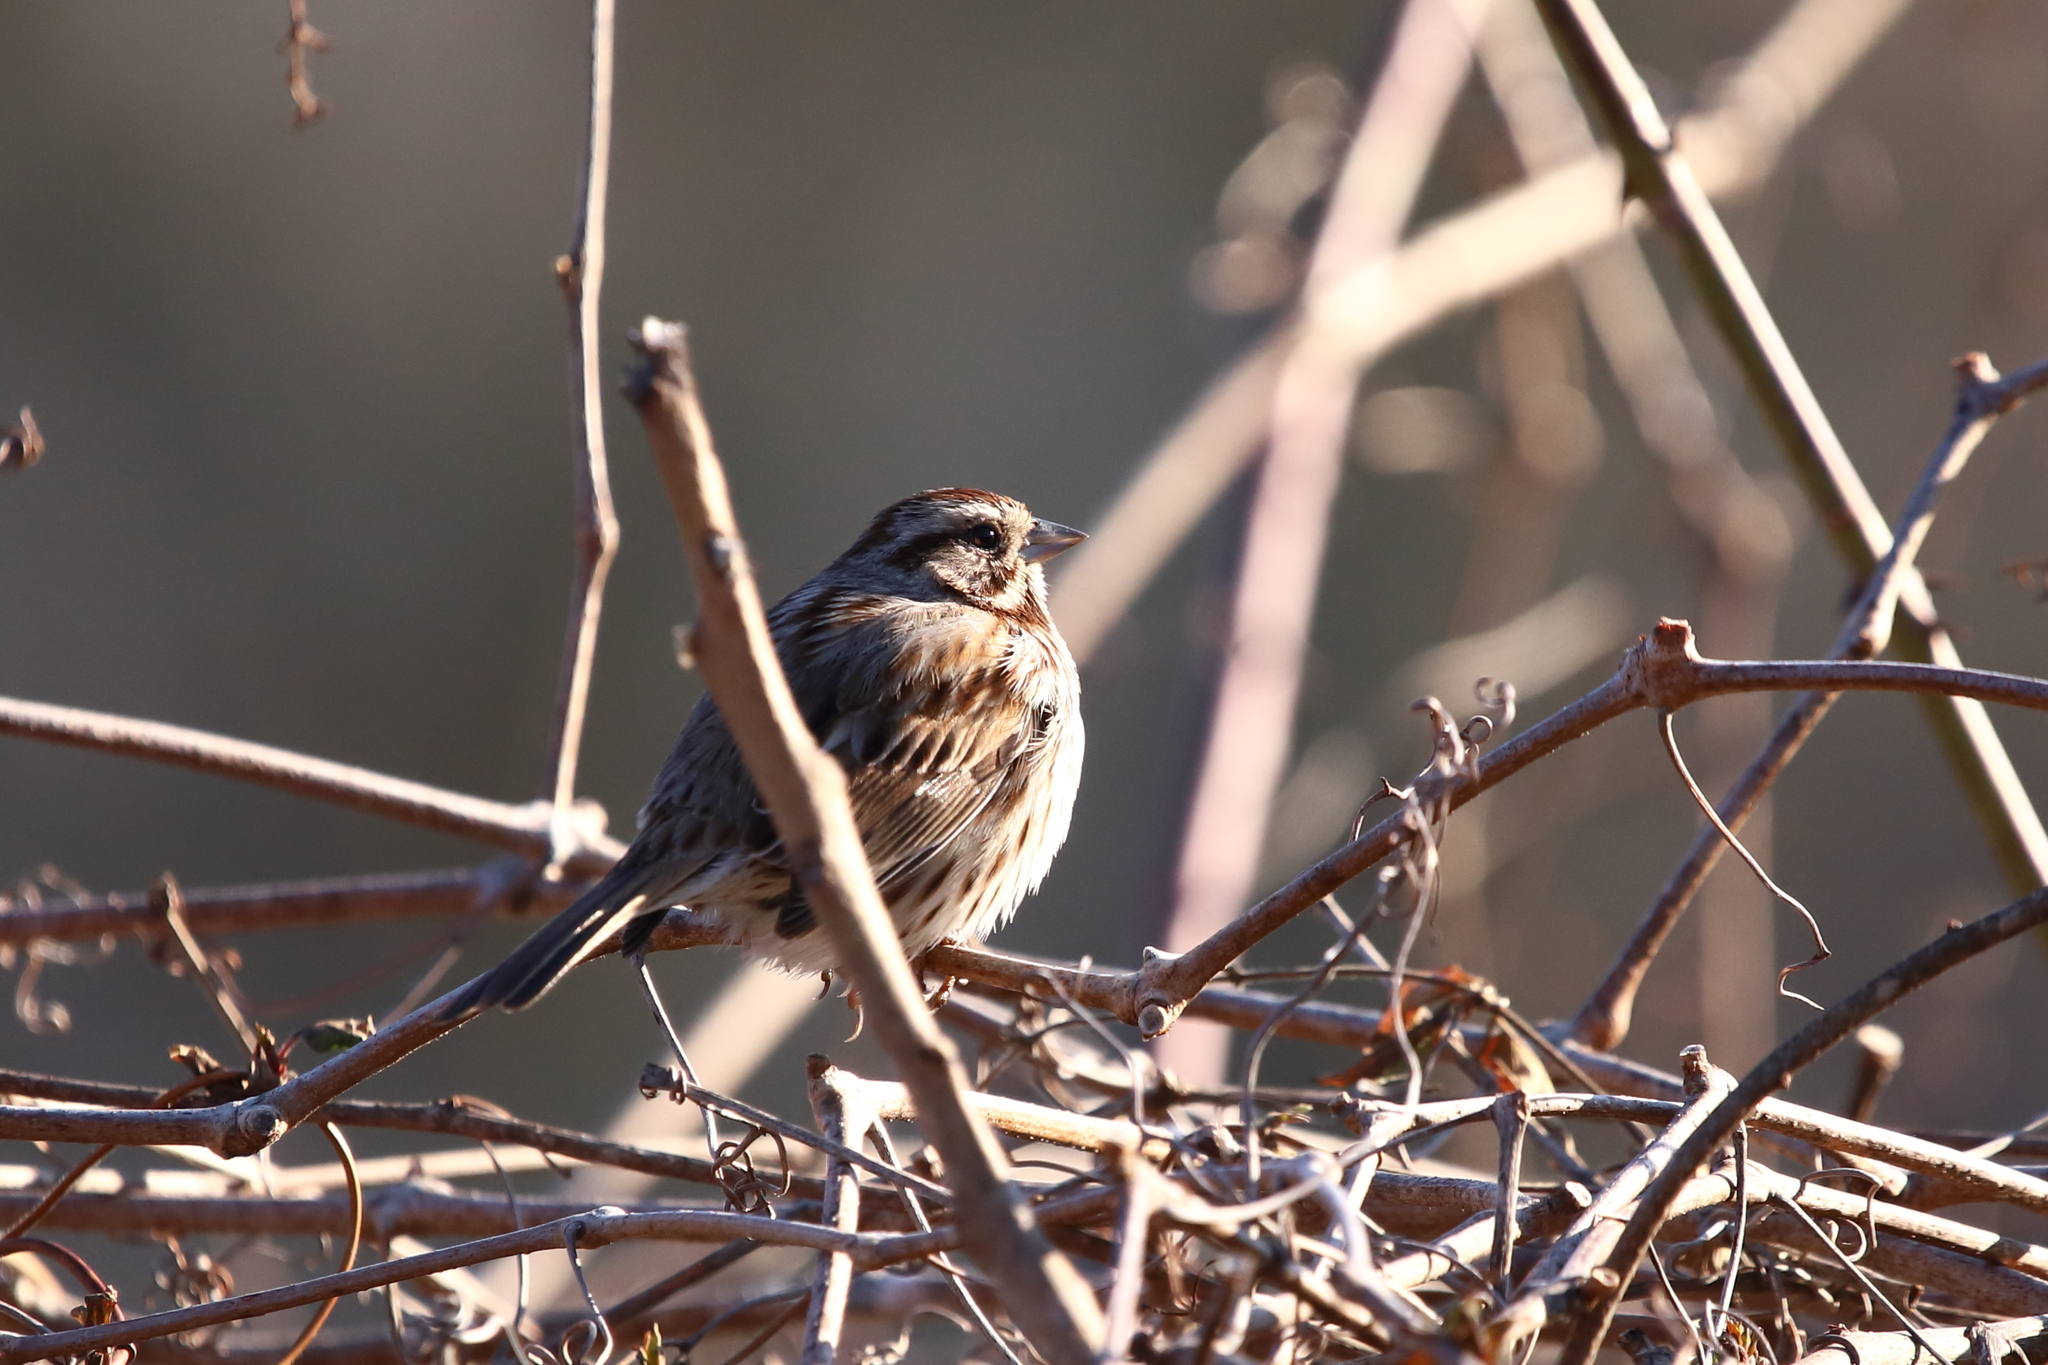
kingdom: Animalia
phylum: Chordata
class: Aves
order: Passeriformes
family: Passerellidae
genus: Melospiza
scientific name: Melospiza melodia
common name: Song sparrow
